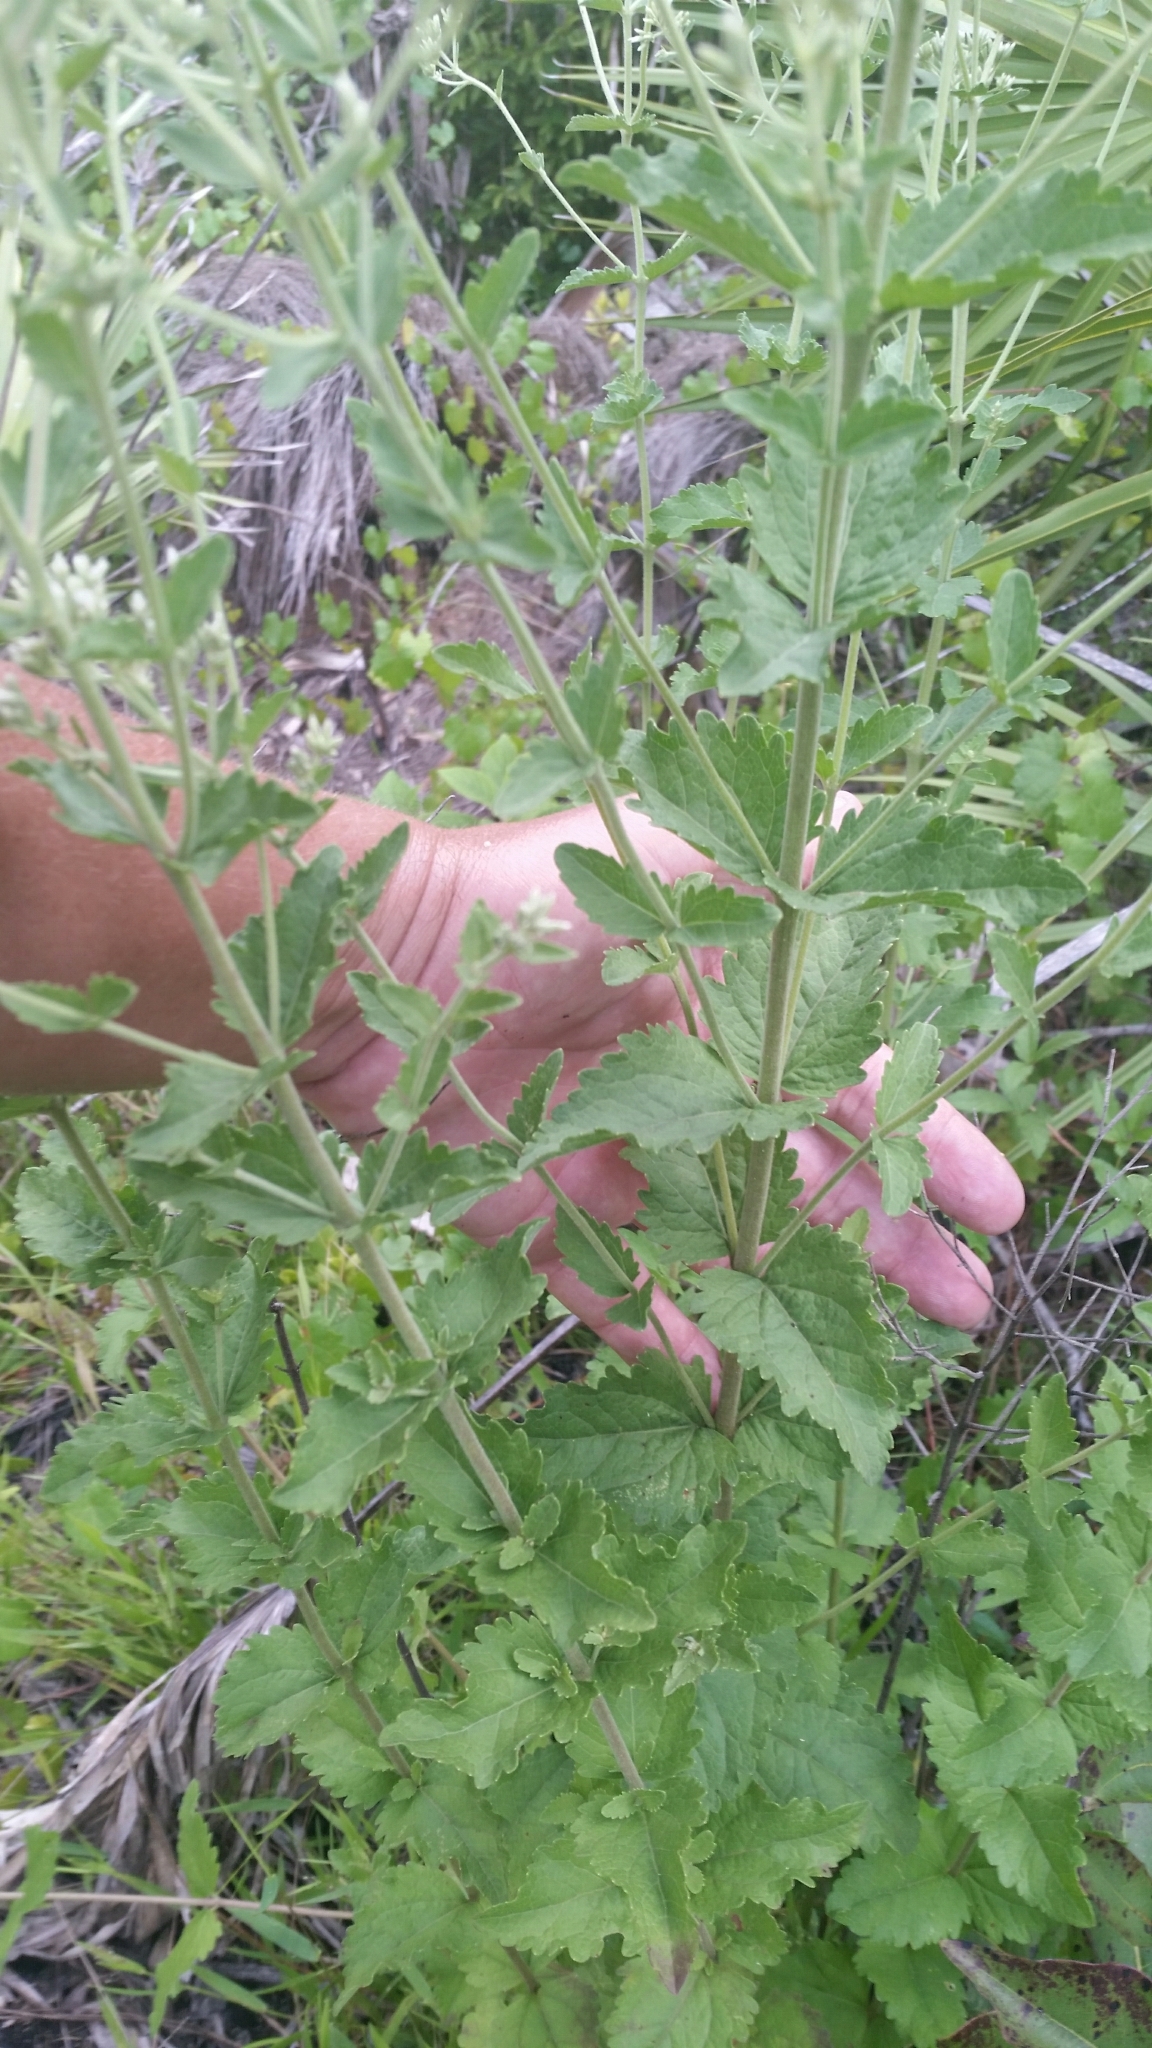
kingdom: Plantae
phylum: Tracheophyta
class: Magnoliopsida
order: Asterales
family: Asteraceae
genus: Eupatorium
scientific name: Eupatorium rotundifolium
